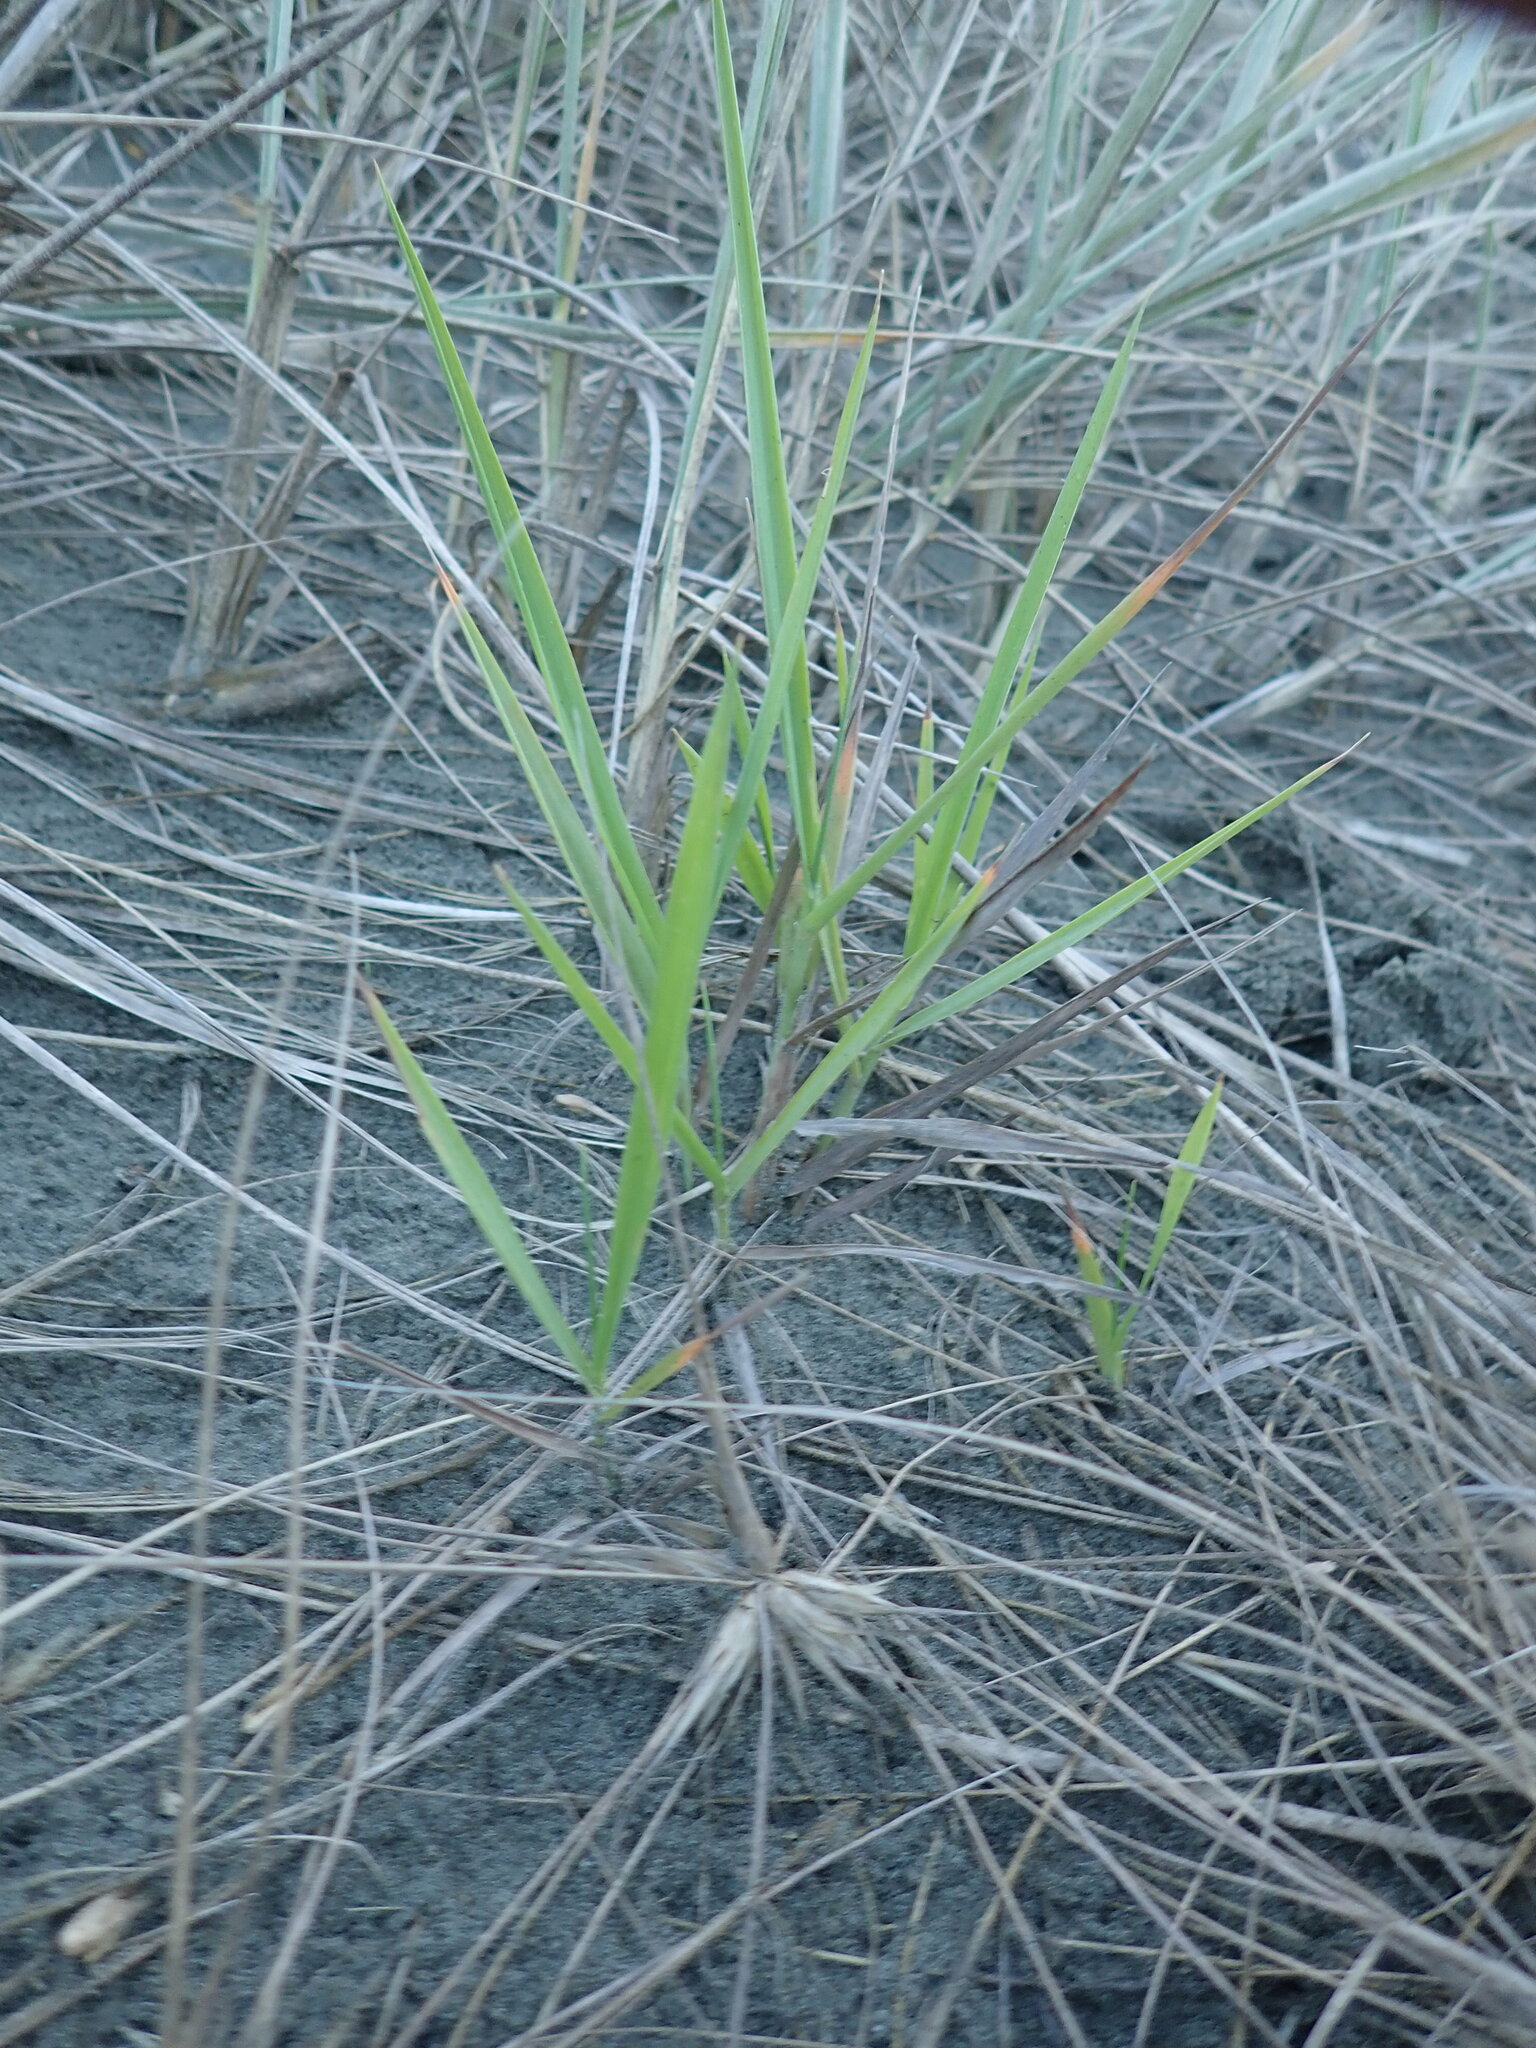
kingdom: Plantae
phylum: Tracheophyta
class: Liliopsida
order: Poales
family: Poaceae
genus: Lachnagrostis
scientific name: Lachnagrostis billardierei
